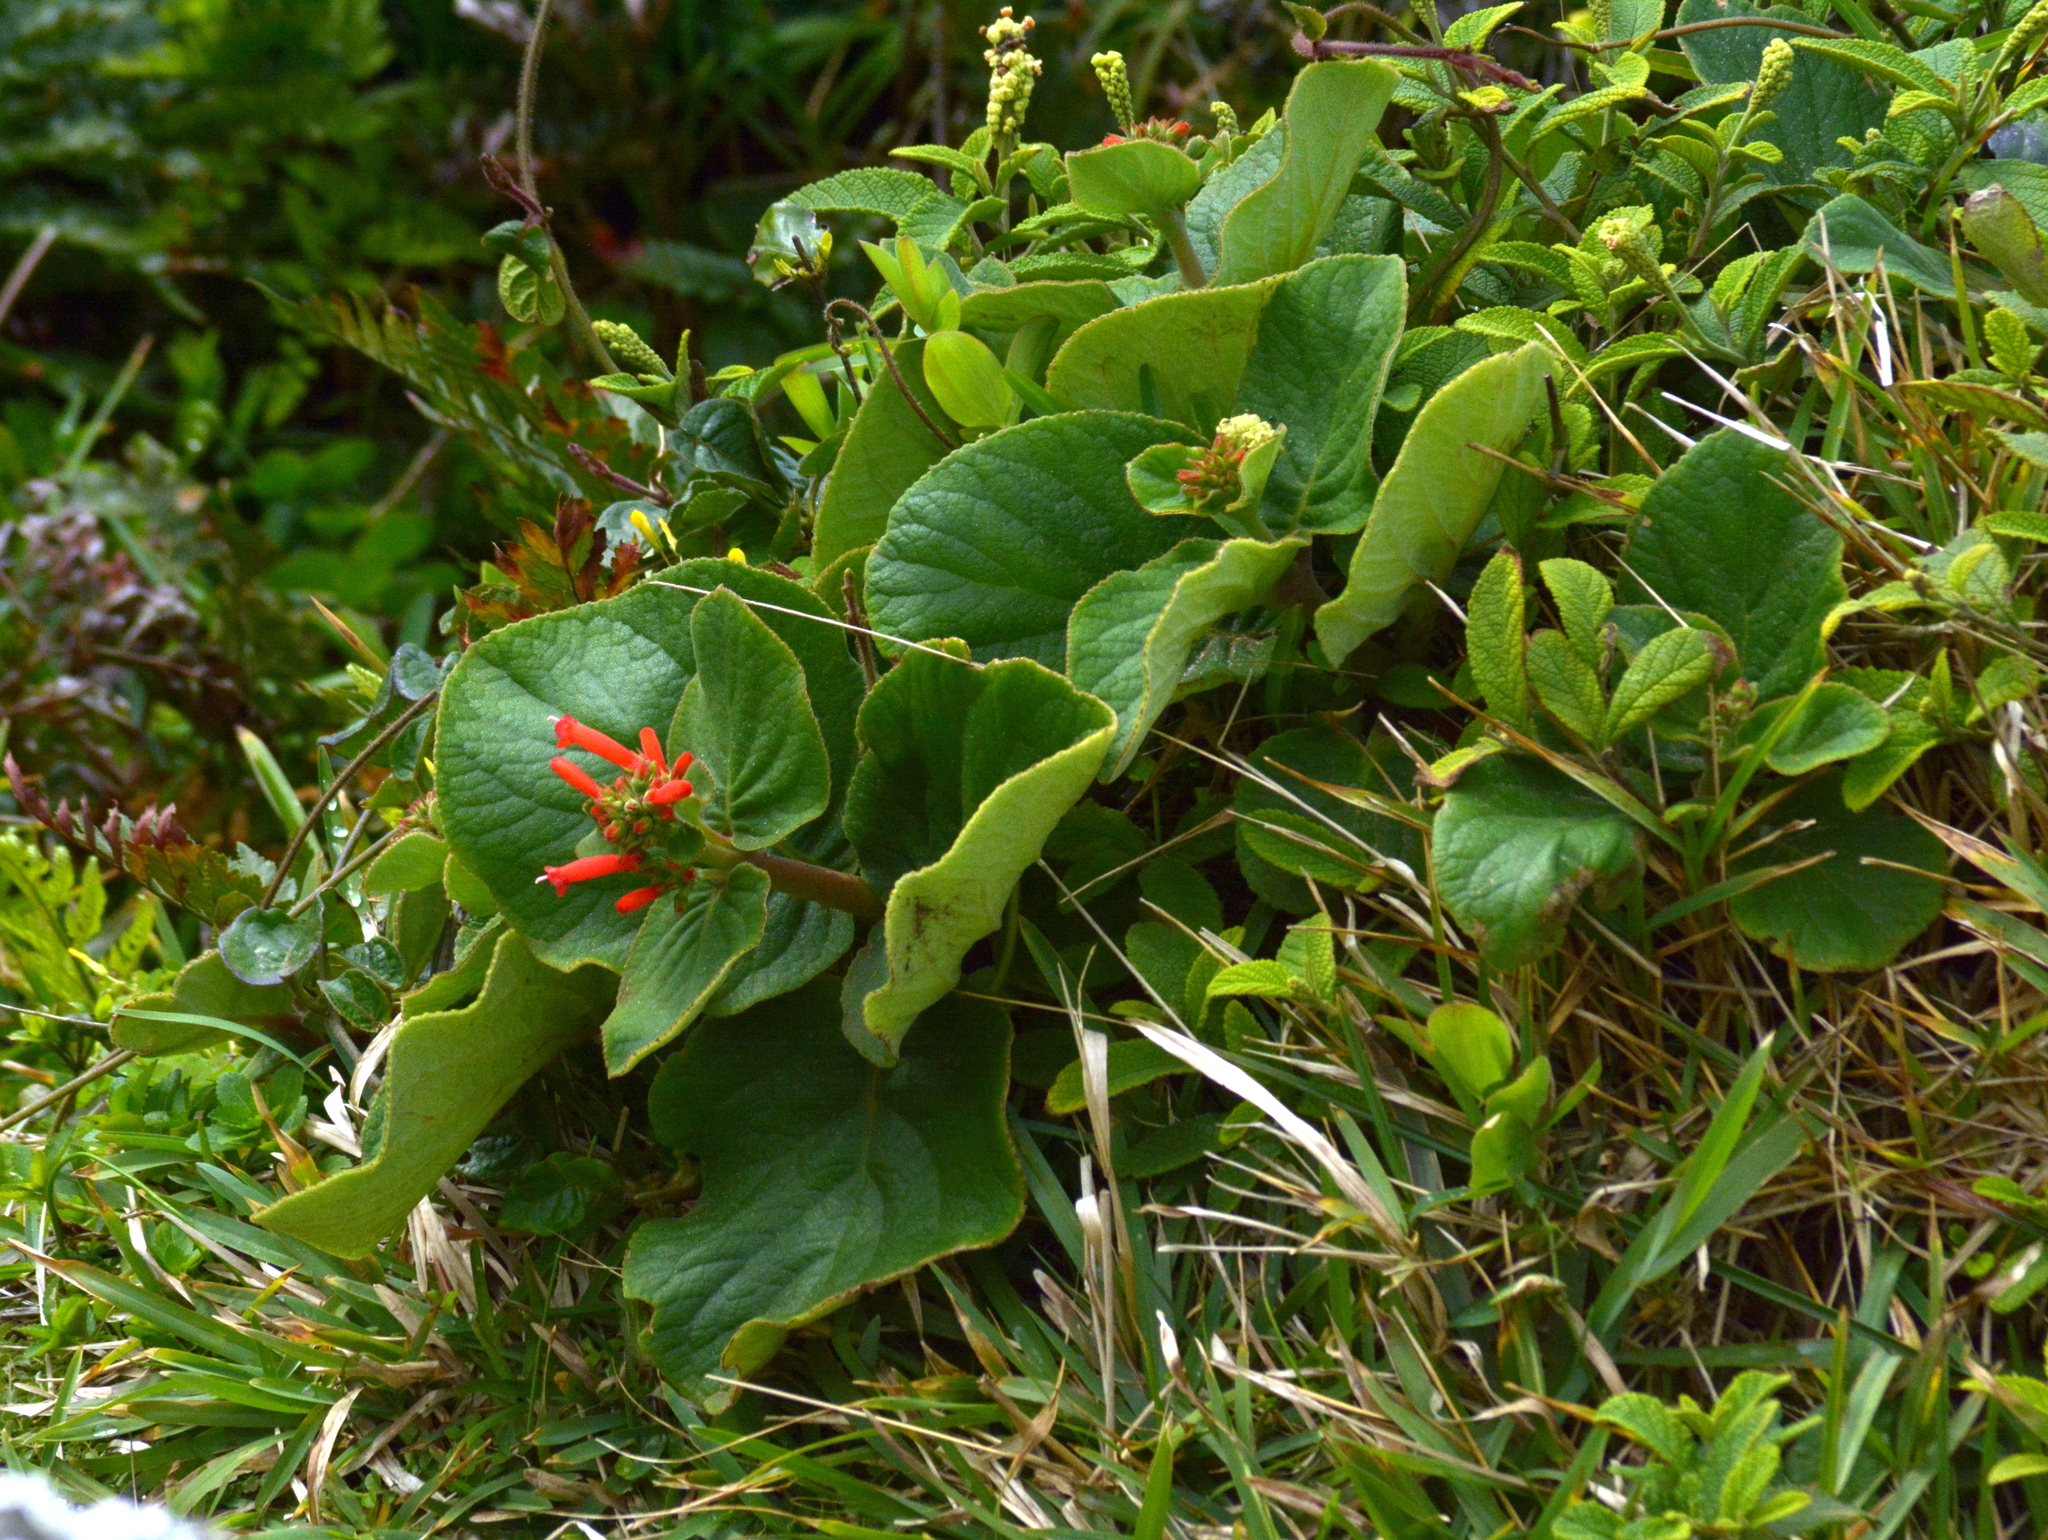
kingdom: Plantae
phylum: Tracheophyta
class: Magnoliopsida
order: Lamiales
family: Gesneriaceae
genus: Sinningia
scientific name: Sinningia macrostachya
